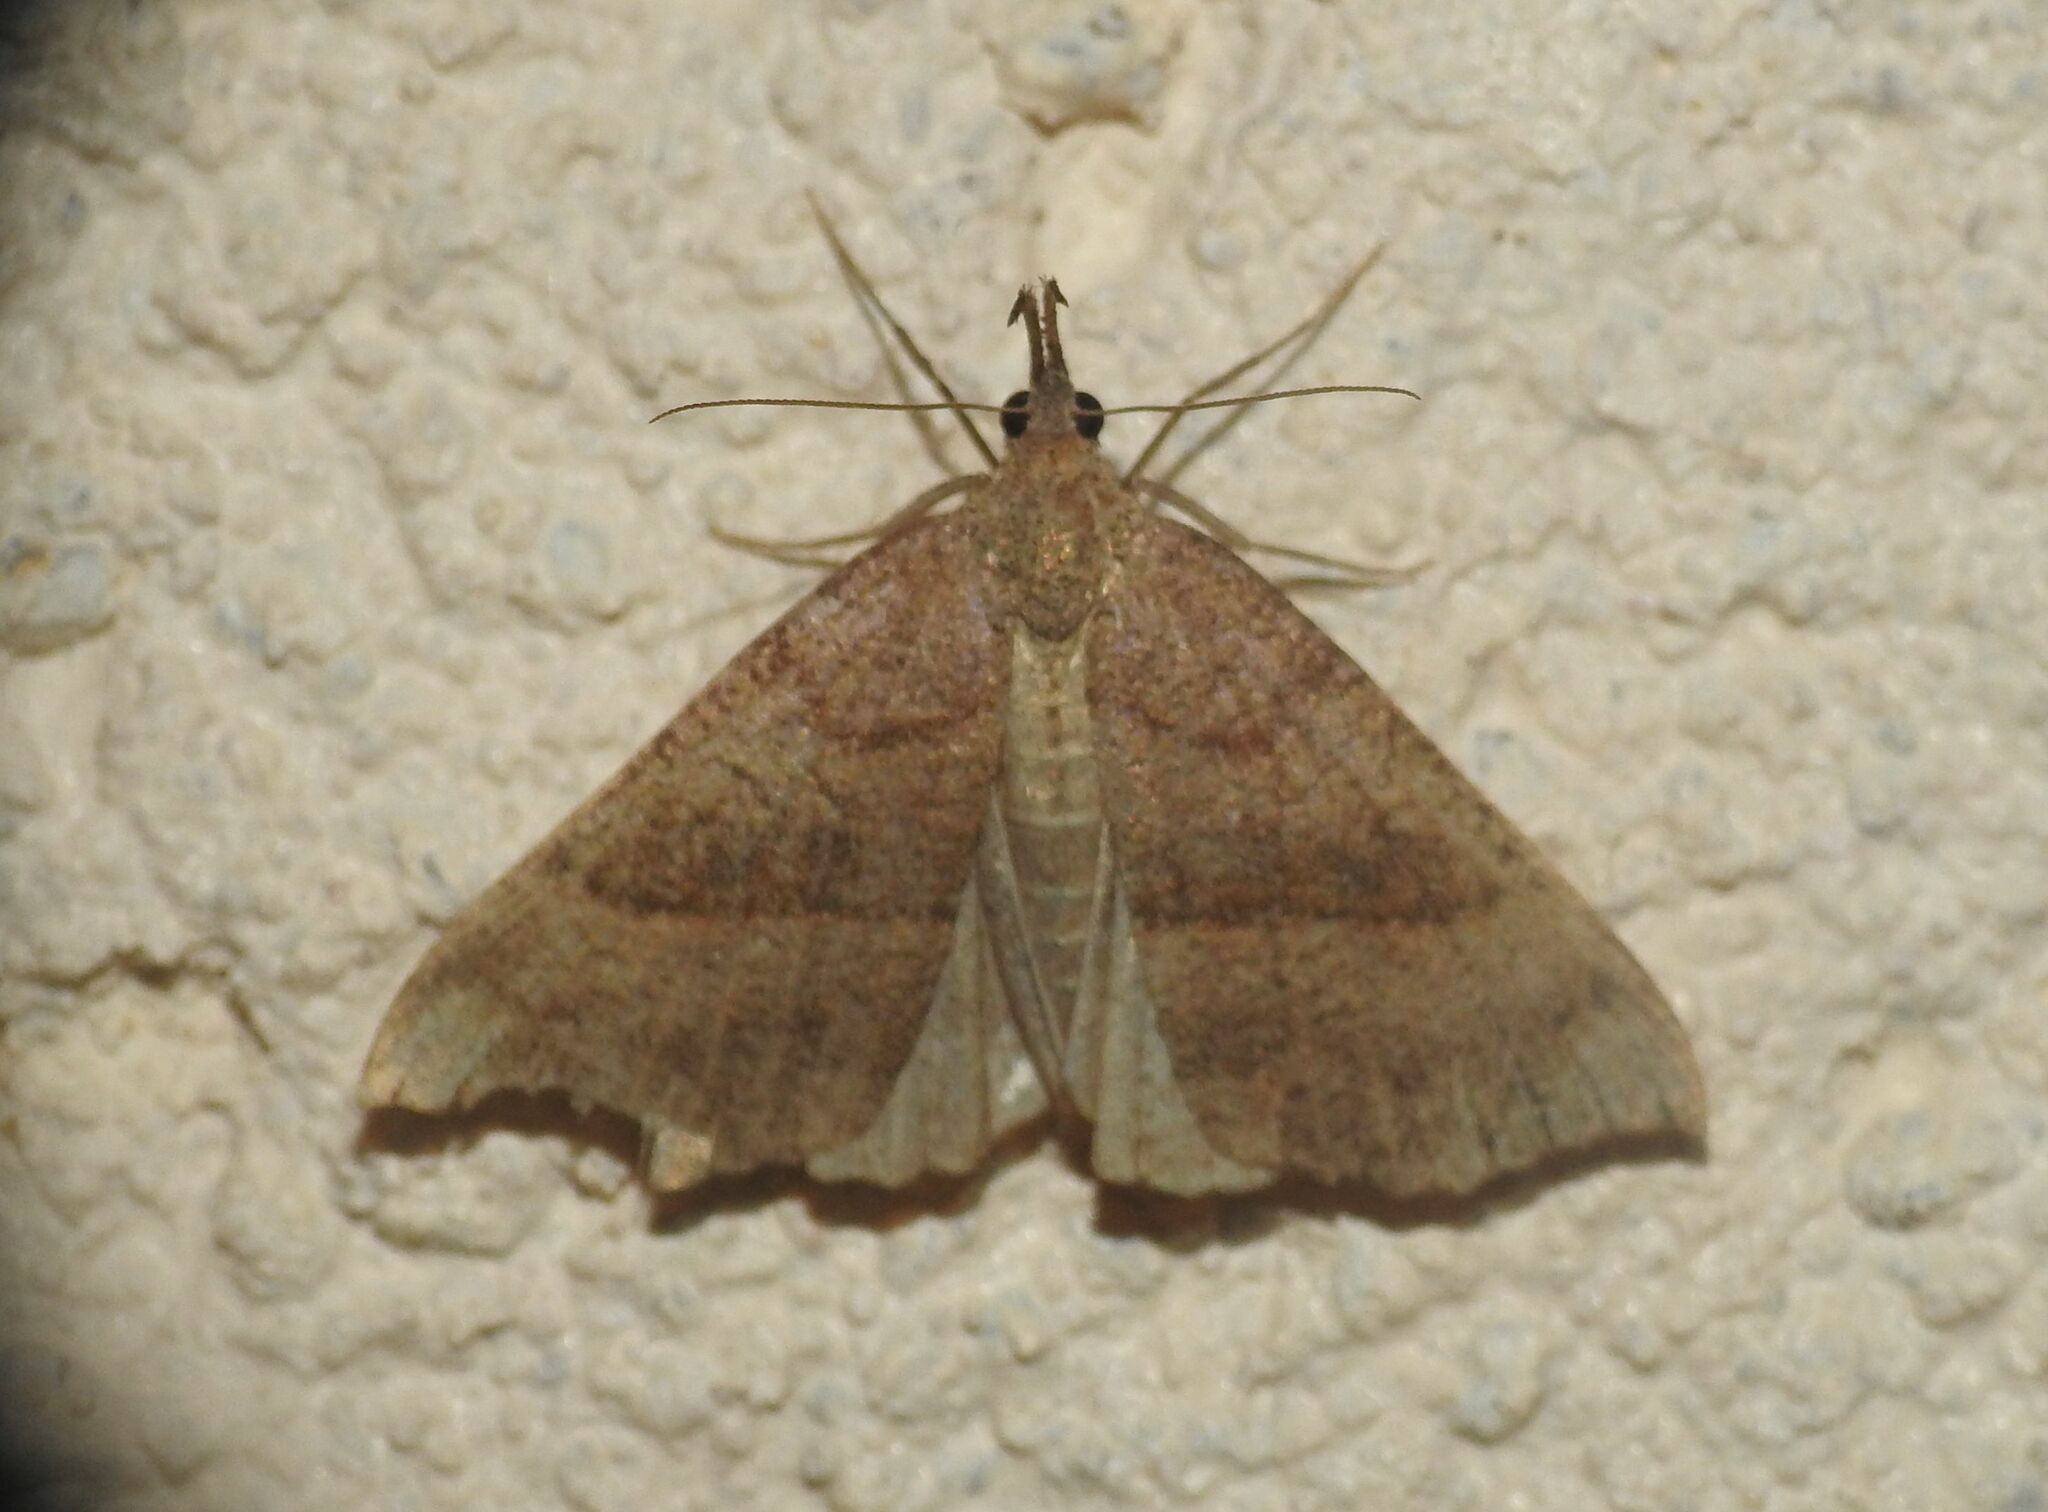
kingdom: Animalia
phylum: Arthropoda
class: Insecta
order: Lepidoptera
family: Erebidae
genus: Hypena
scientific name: Hypena proboscidalis
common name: Snout
